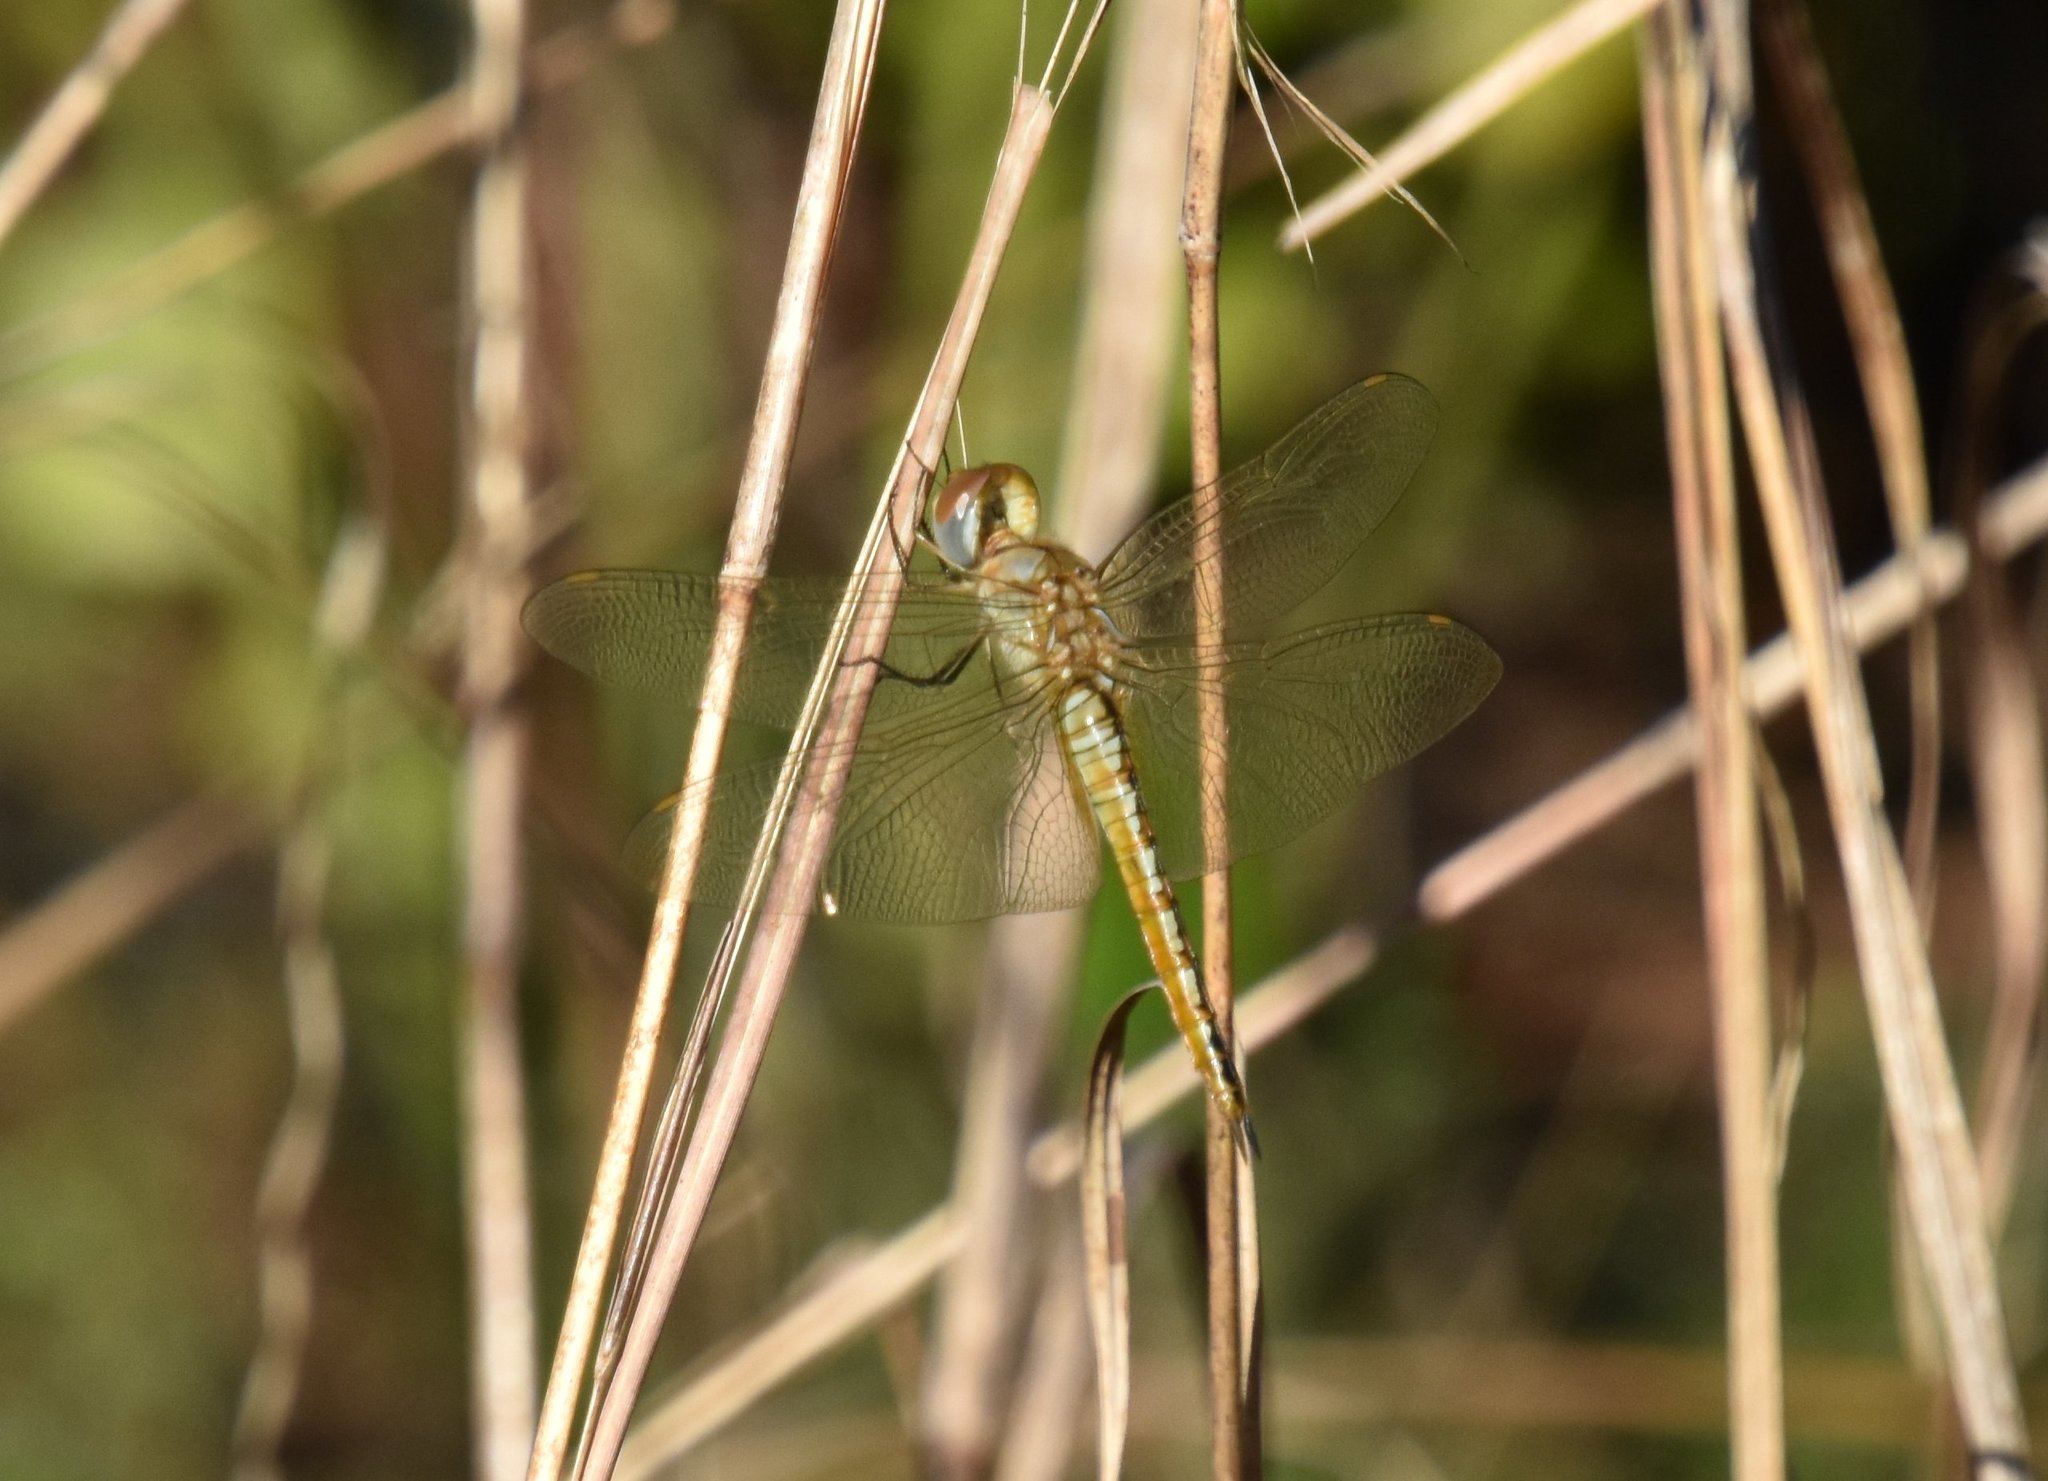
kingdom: Animalia
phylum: Arthropoda
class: Insecta
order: Odonata
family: Libellulidae
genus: Pantala
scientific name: Pantala flavescens
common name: Wandering glider
